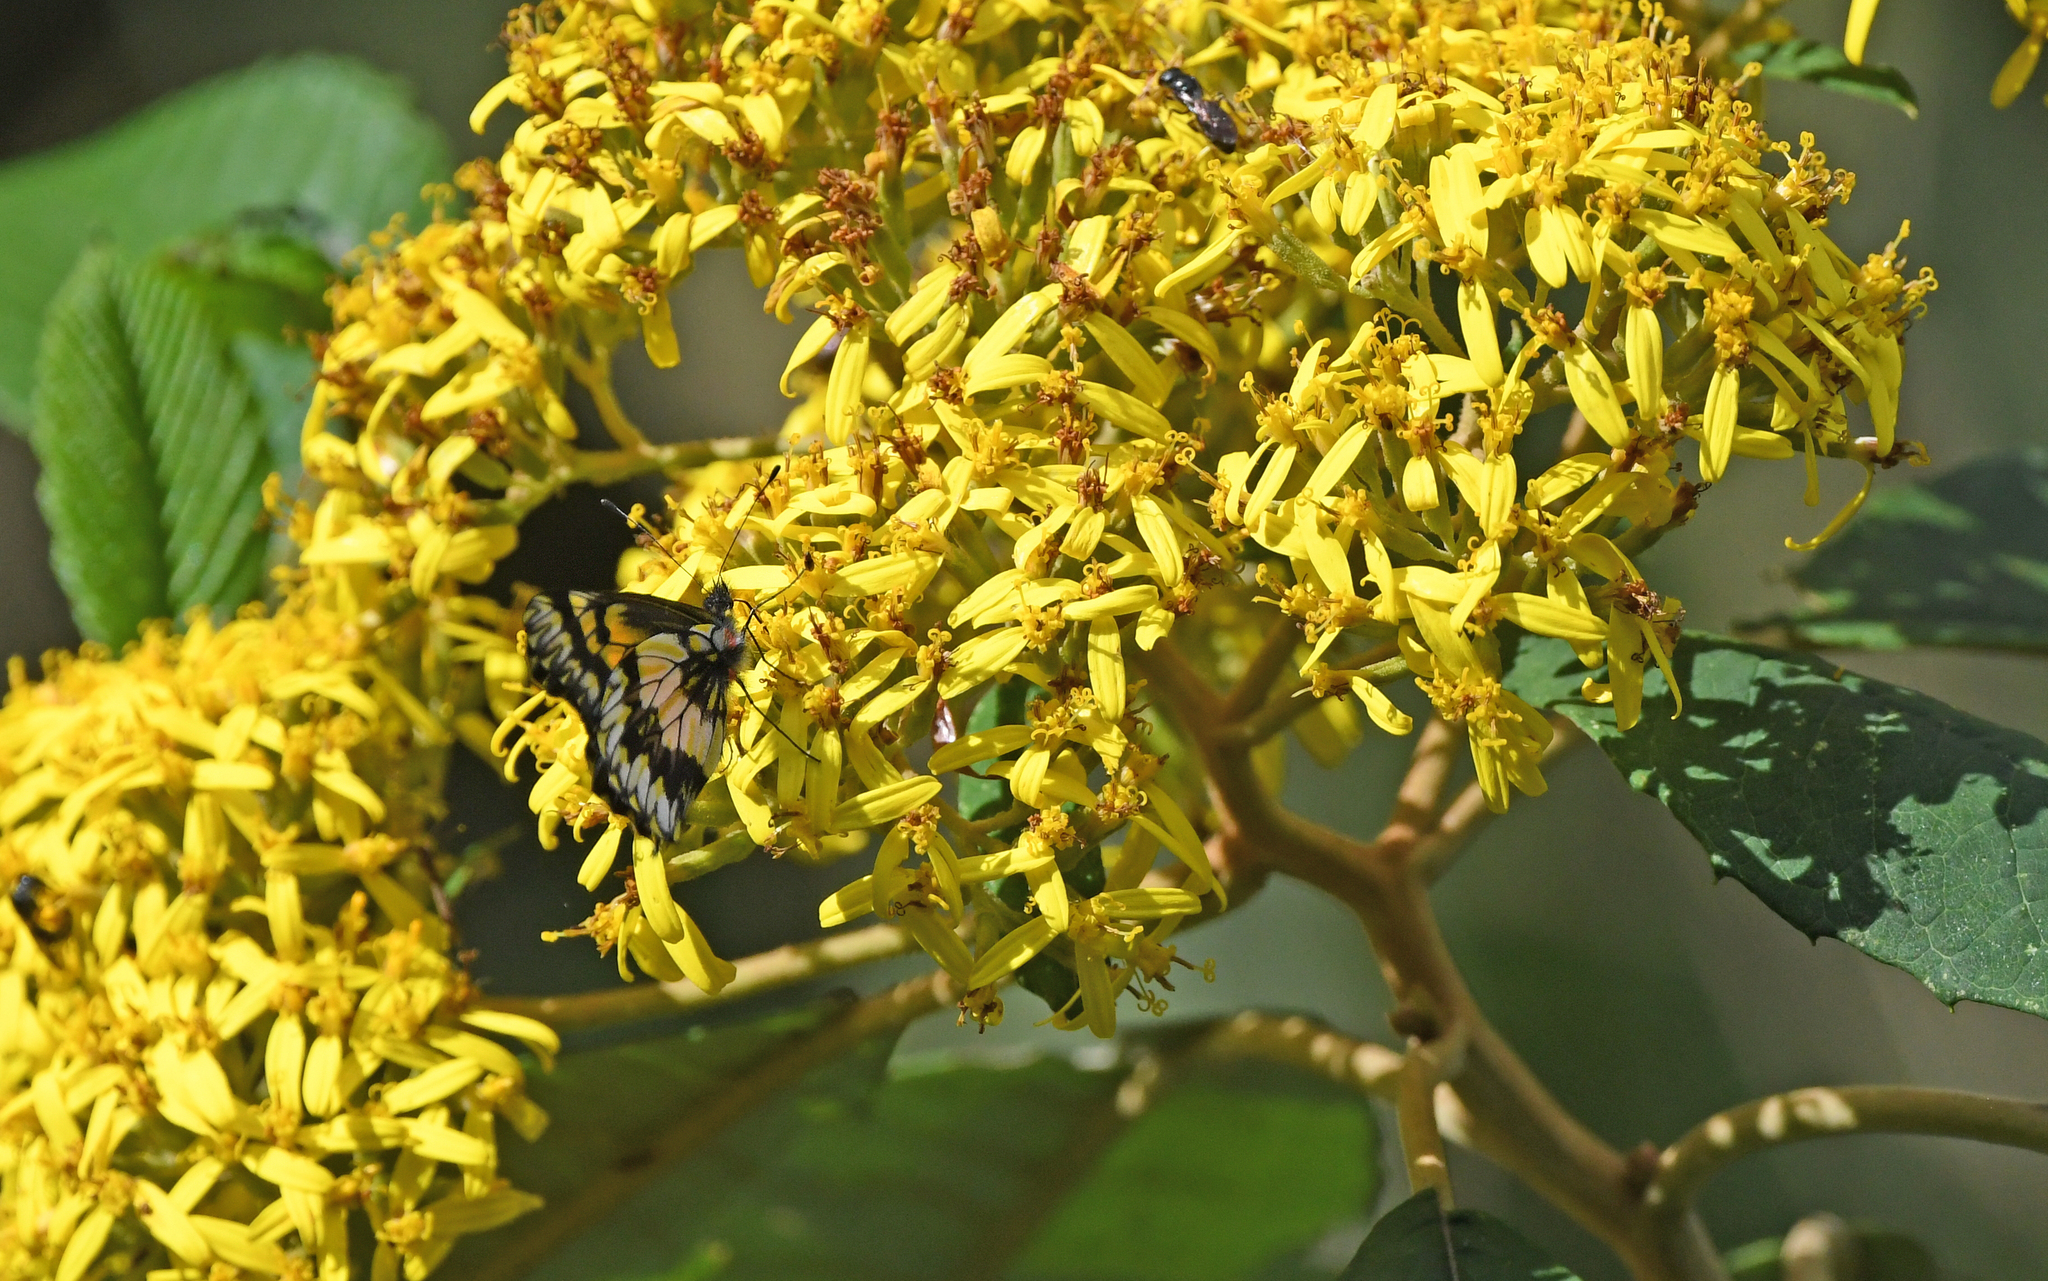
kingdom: Animalia
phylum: Arthropoda
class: Insecta
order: Lepidoptera
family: Pieridae
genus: Catasticta
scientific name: Catasticta chelidonis
